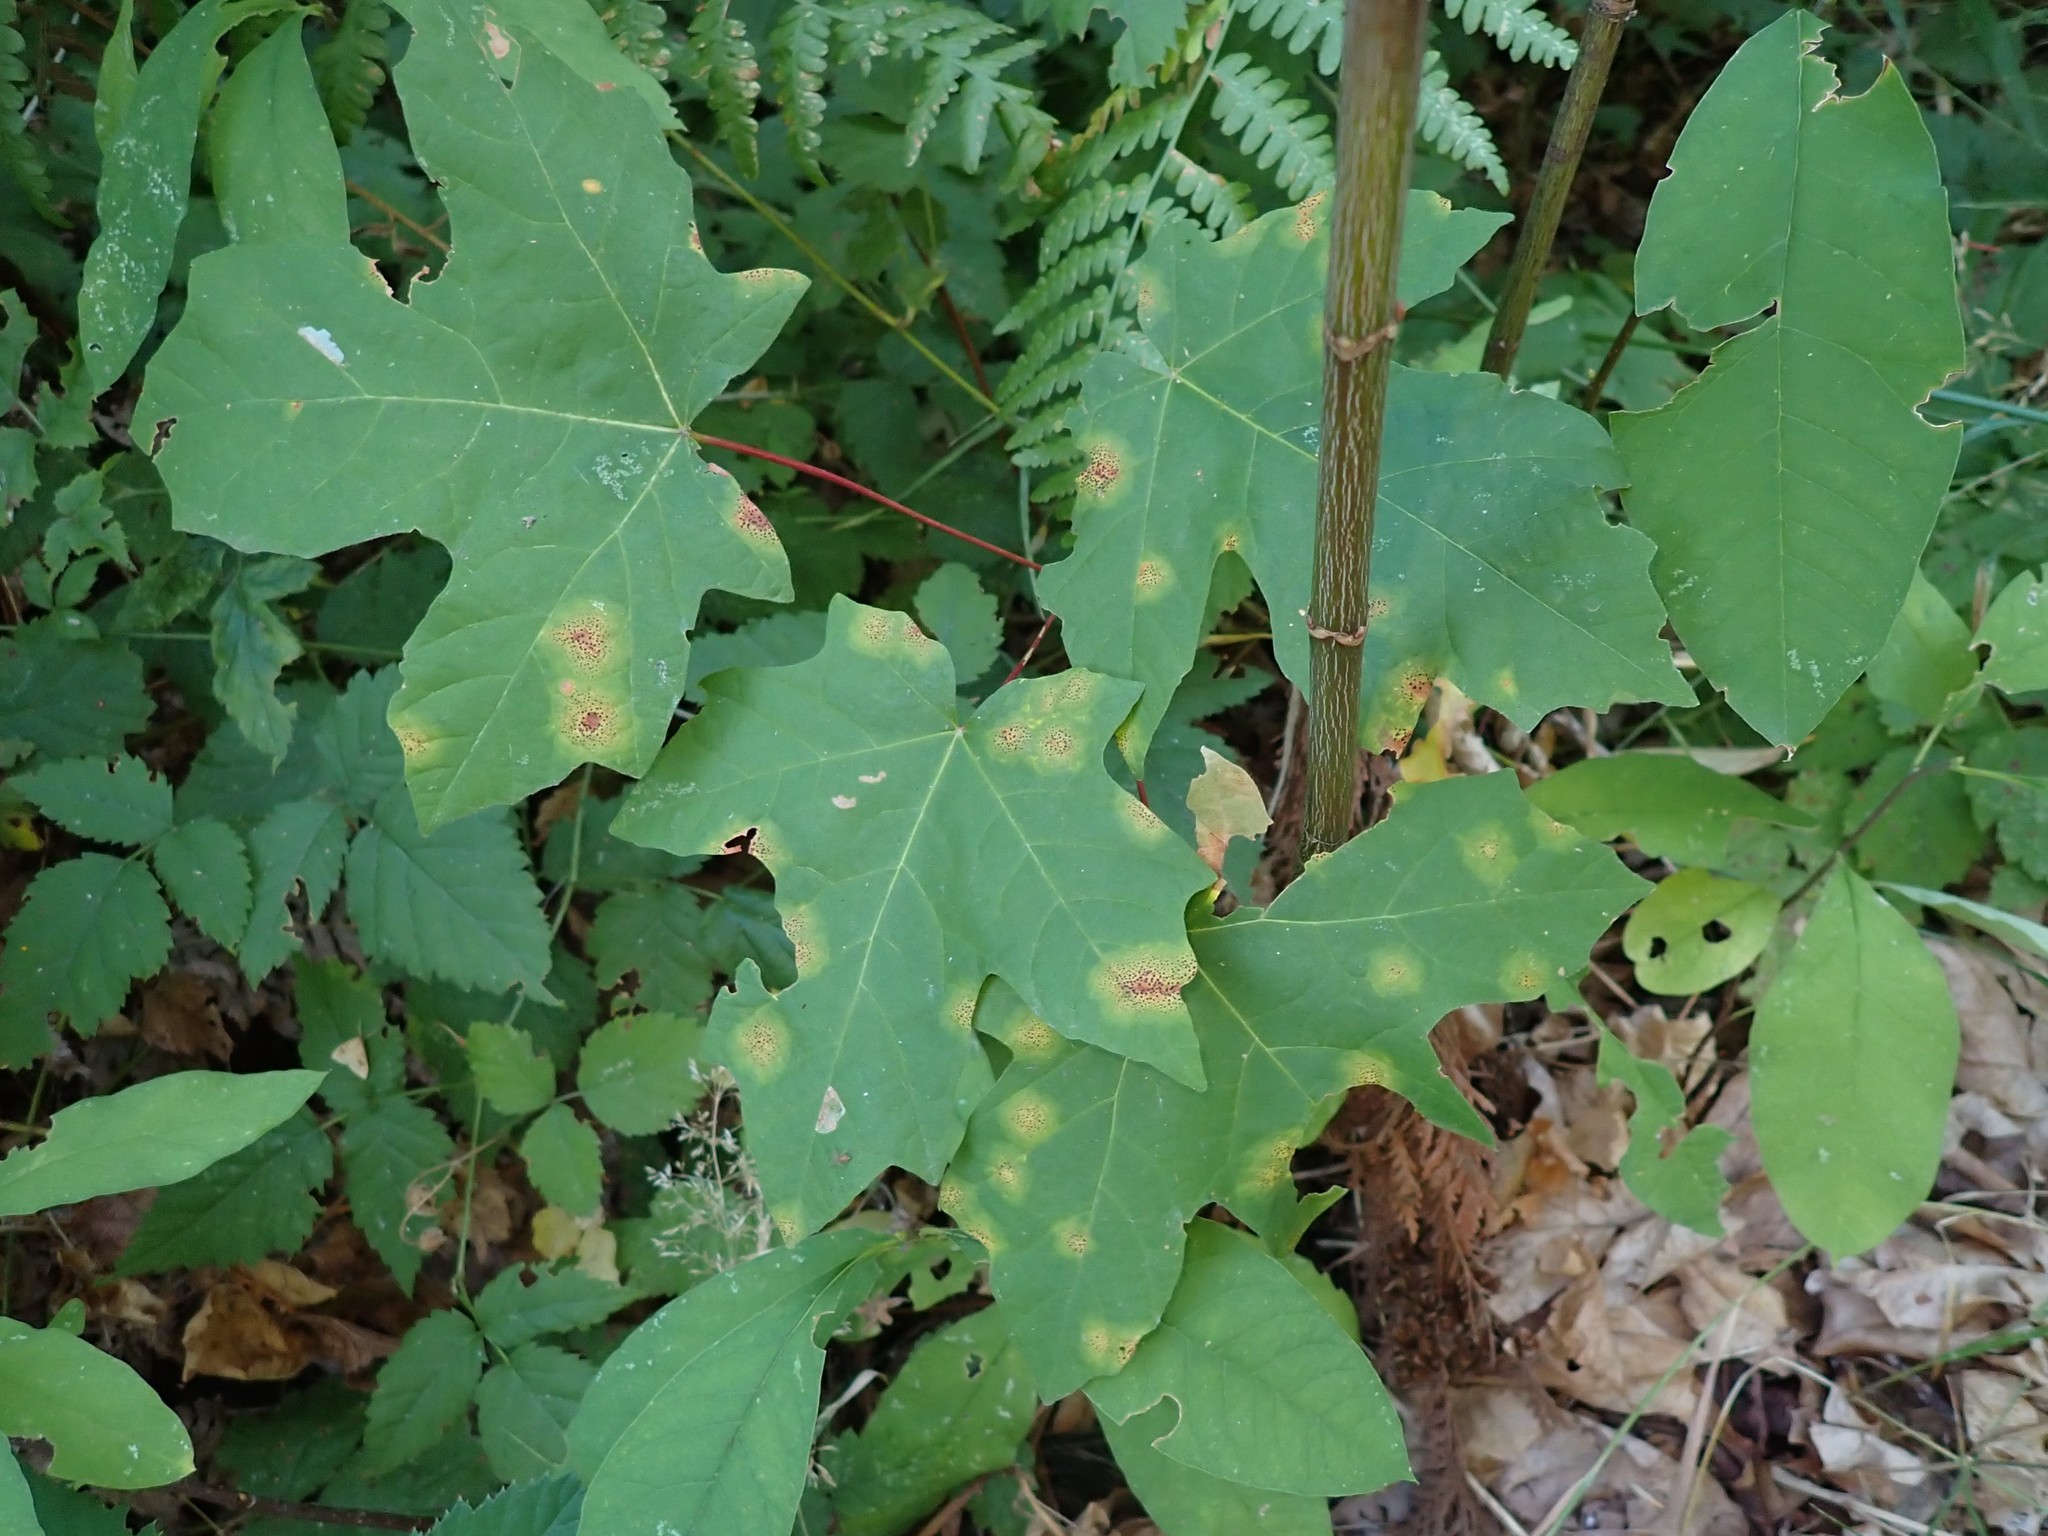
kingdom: Fungi
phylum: Ascomycota
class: Leotiomycetes
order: Rhytismatales
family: Rhytismataceae
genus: Rhytisma
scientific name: Rhytisma punctatum
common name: Speckled tar spot
